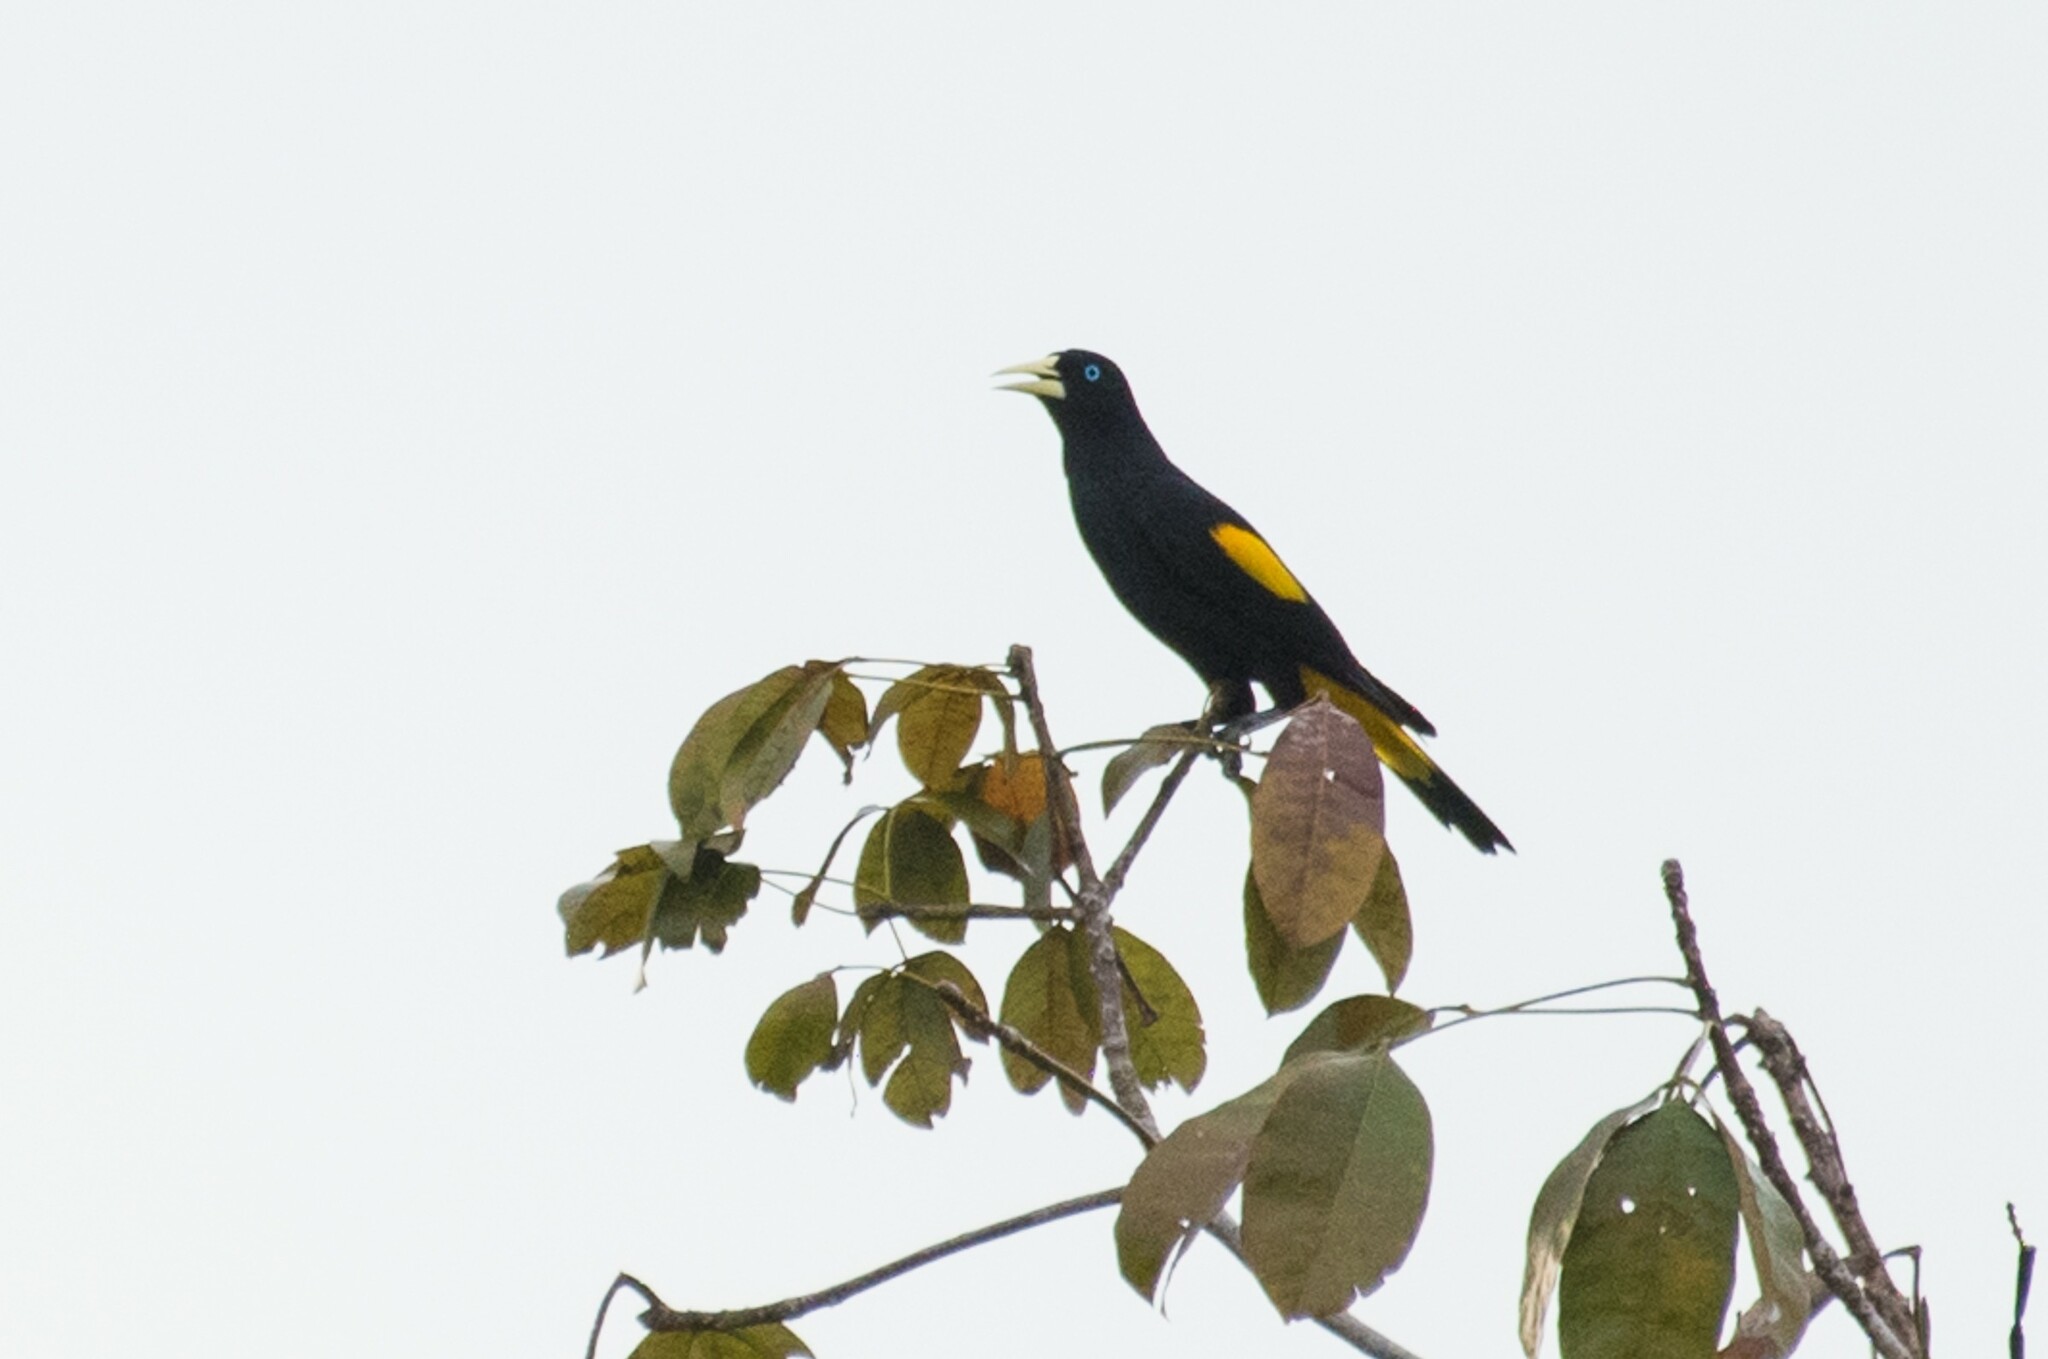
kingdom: Animalia
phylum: Chordata
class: Aves
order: Passeriformes
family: Icteridae
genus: Cacicus
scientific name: Cacicus cela
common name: Yellow-rumped cacique
